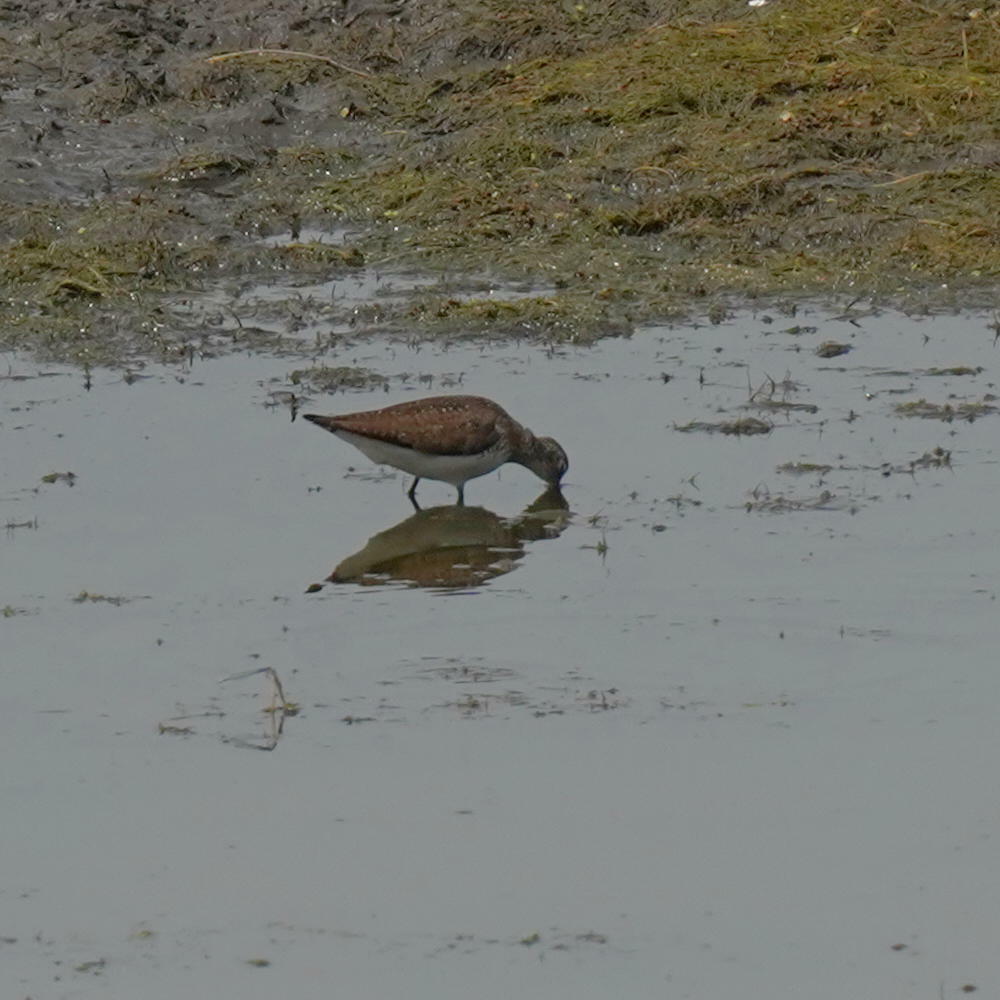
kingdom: Animalia
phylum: Chordata
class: Aves
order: Charadriiformes
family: Scolopacidae
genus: Tringa
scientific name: Tringa solitaria
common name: Solitary sandpiper
